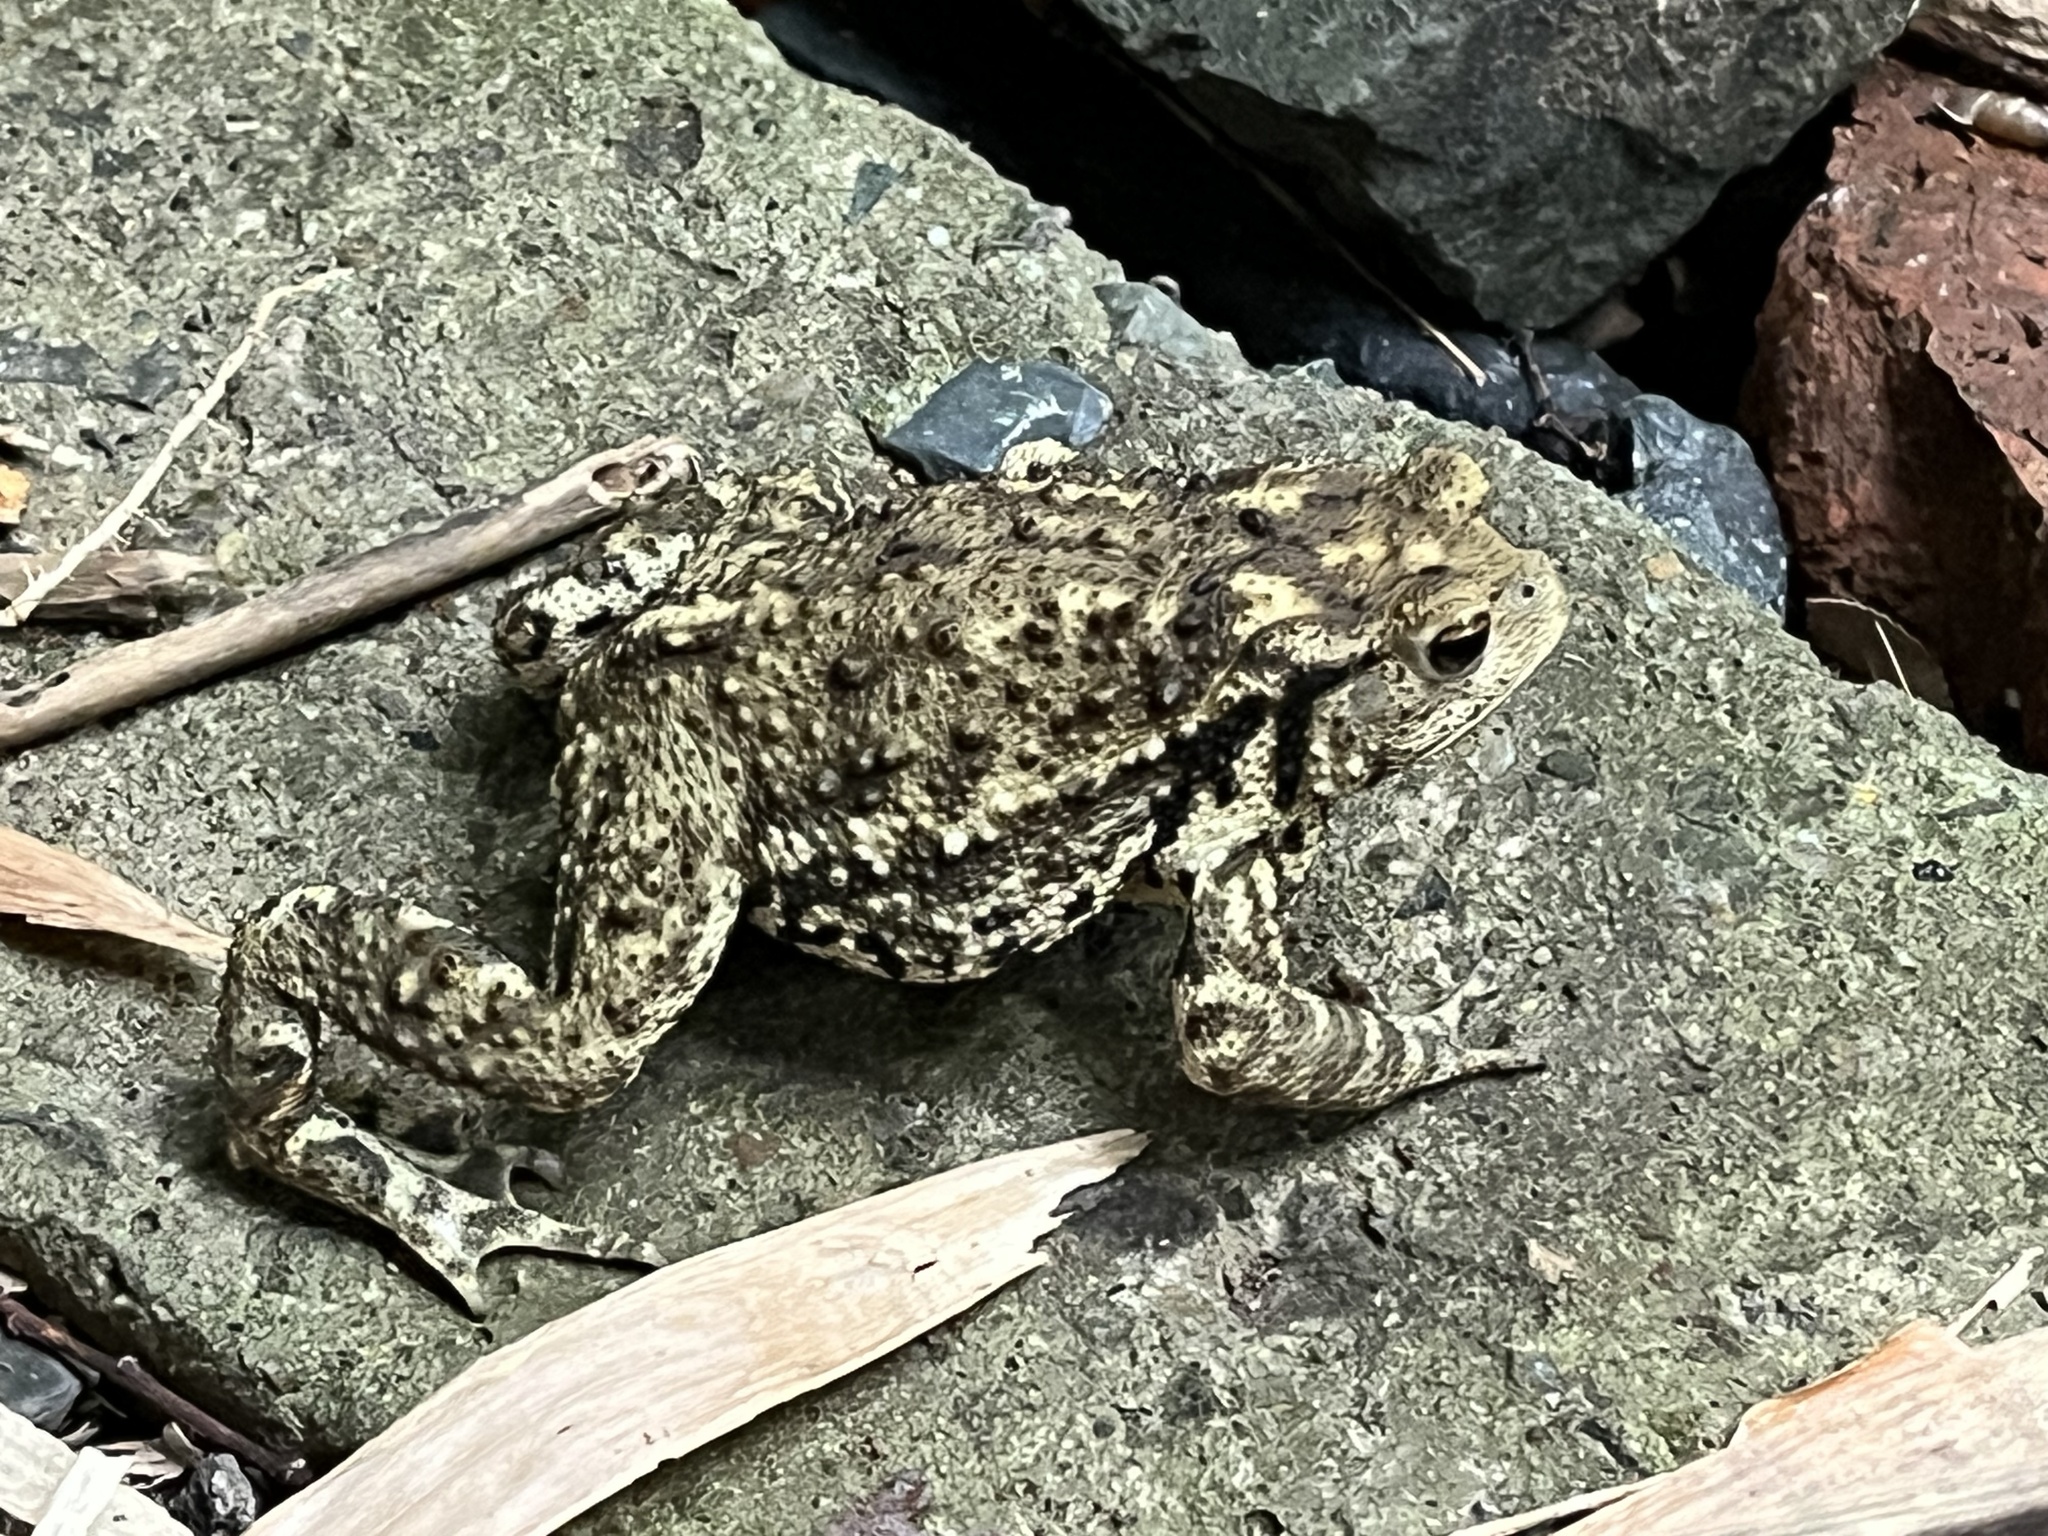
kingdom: Animalia
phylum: Chordata
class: Amphibia
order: Anura
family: Bufonidae
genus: Bufo
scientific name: Bufo gargarizans
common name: Asiatic toad
